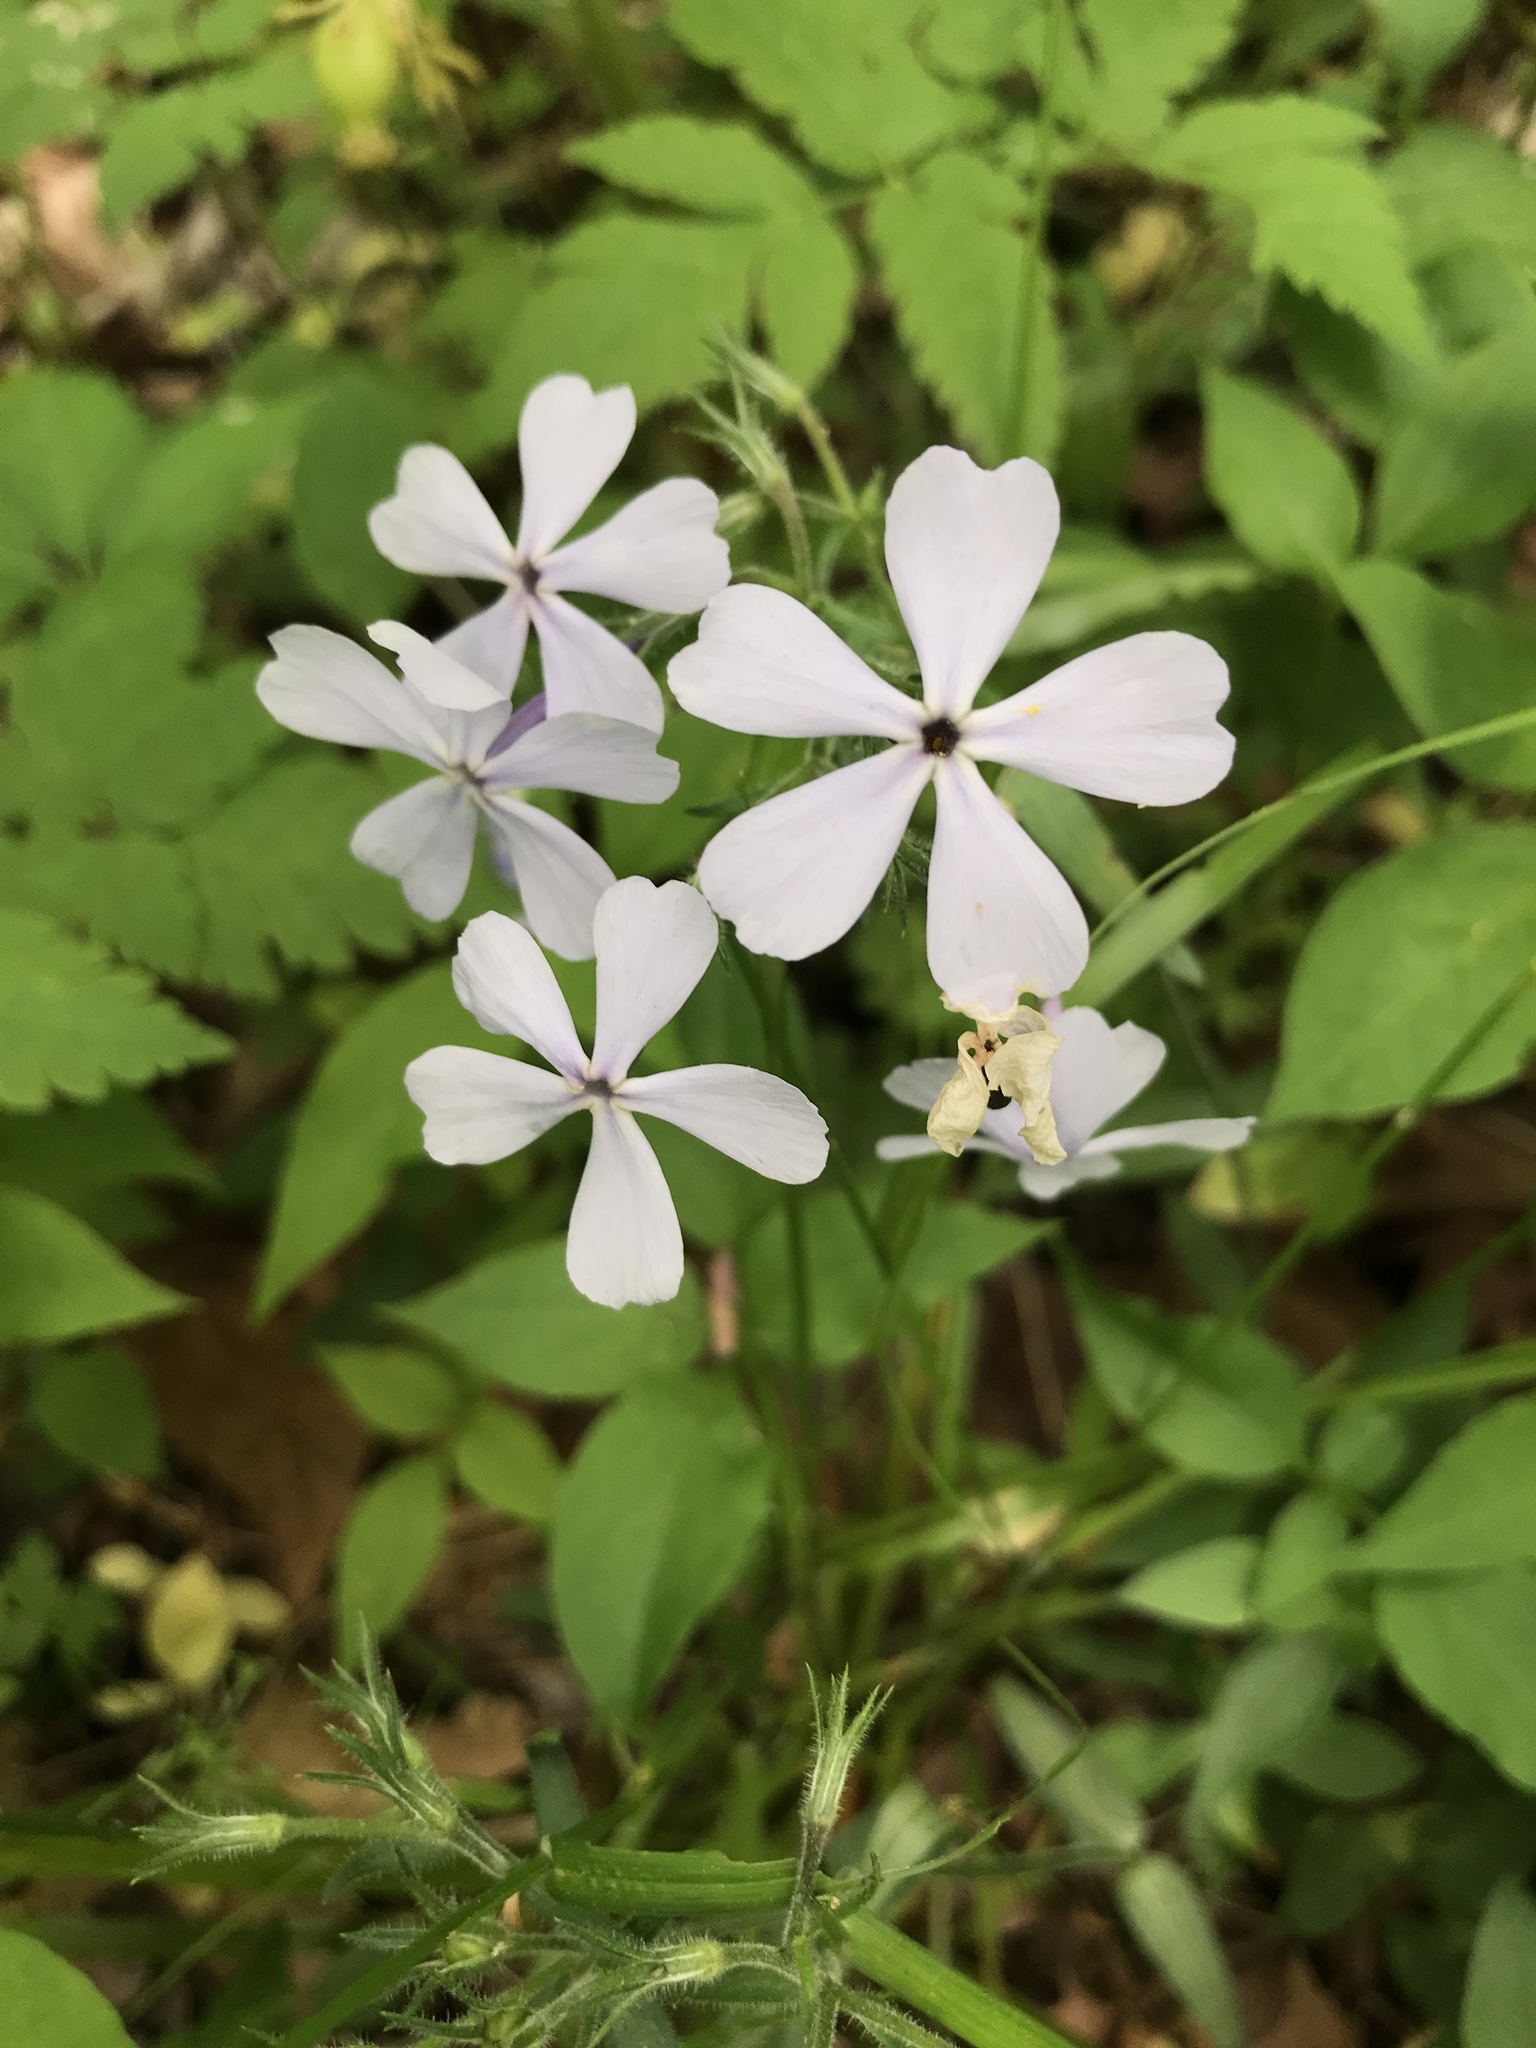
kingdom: Plantae
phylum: Tracheophyta
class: Magnoliopsida
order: Ericales
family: Polemoniaceae
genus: Phlox
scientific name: Phlox divaricata
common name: Blue phlox
